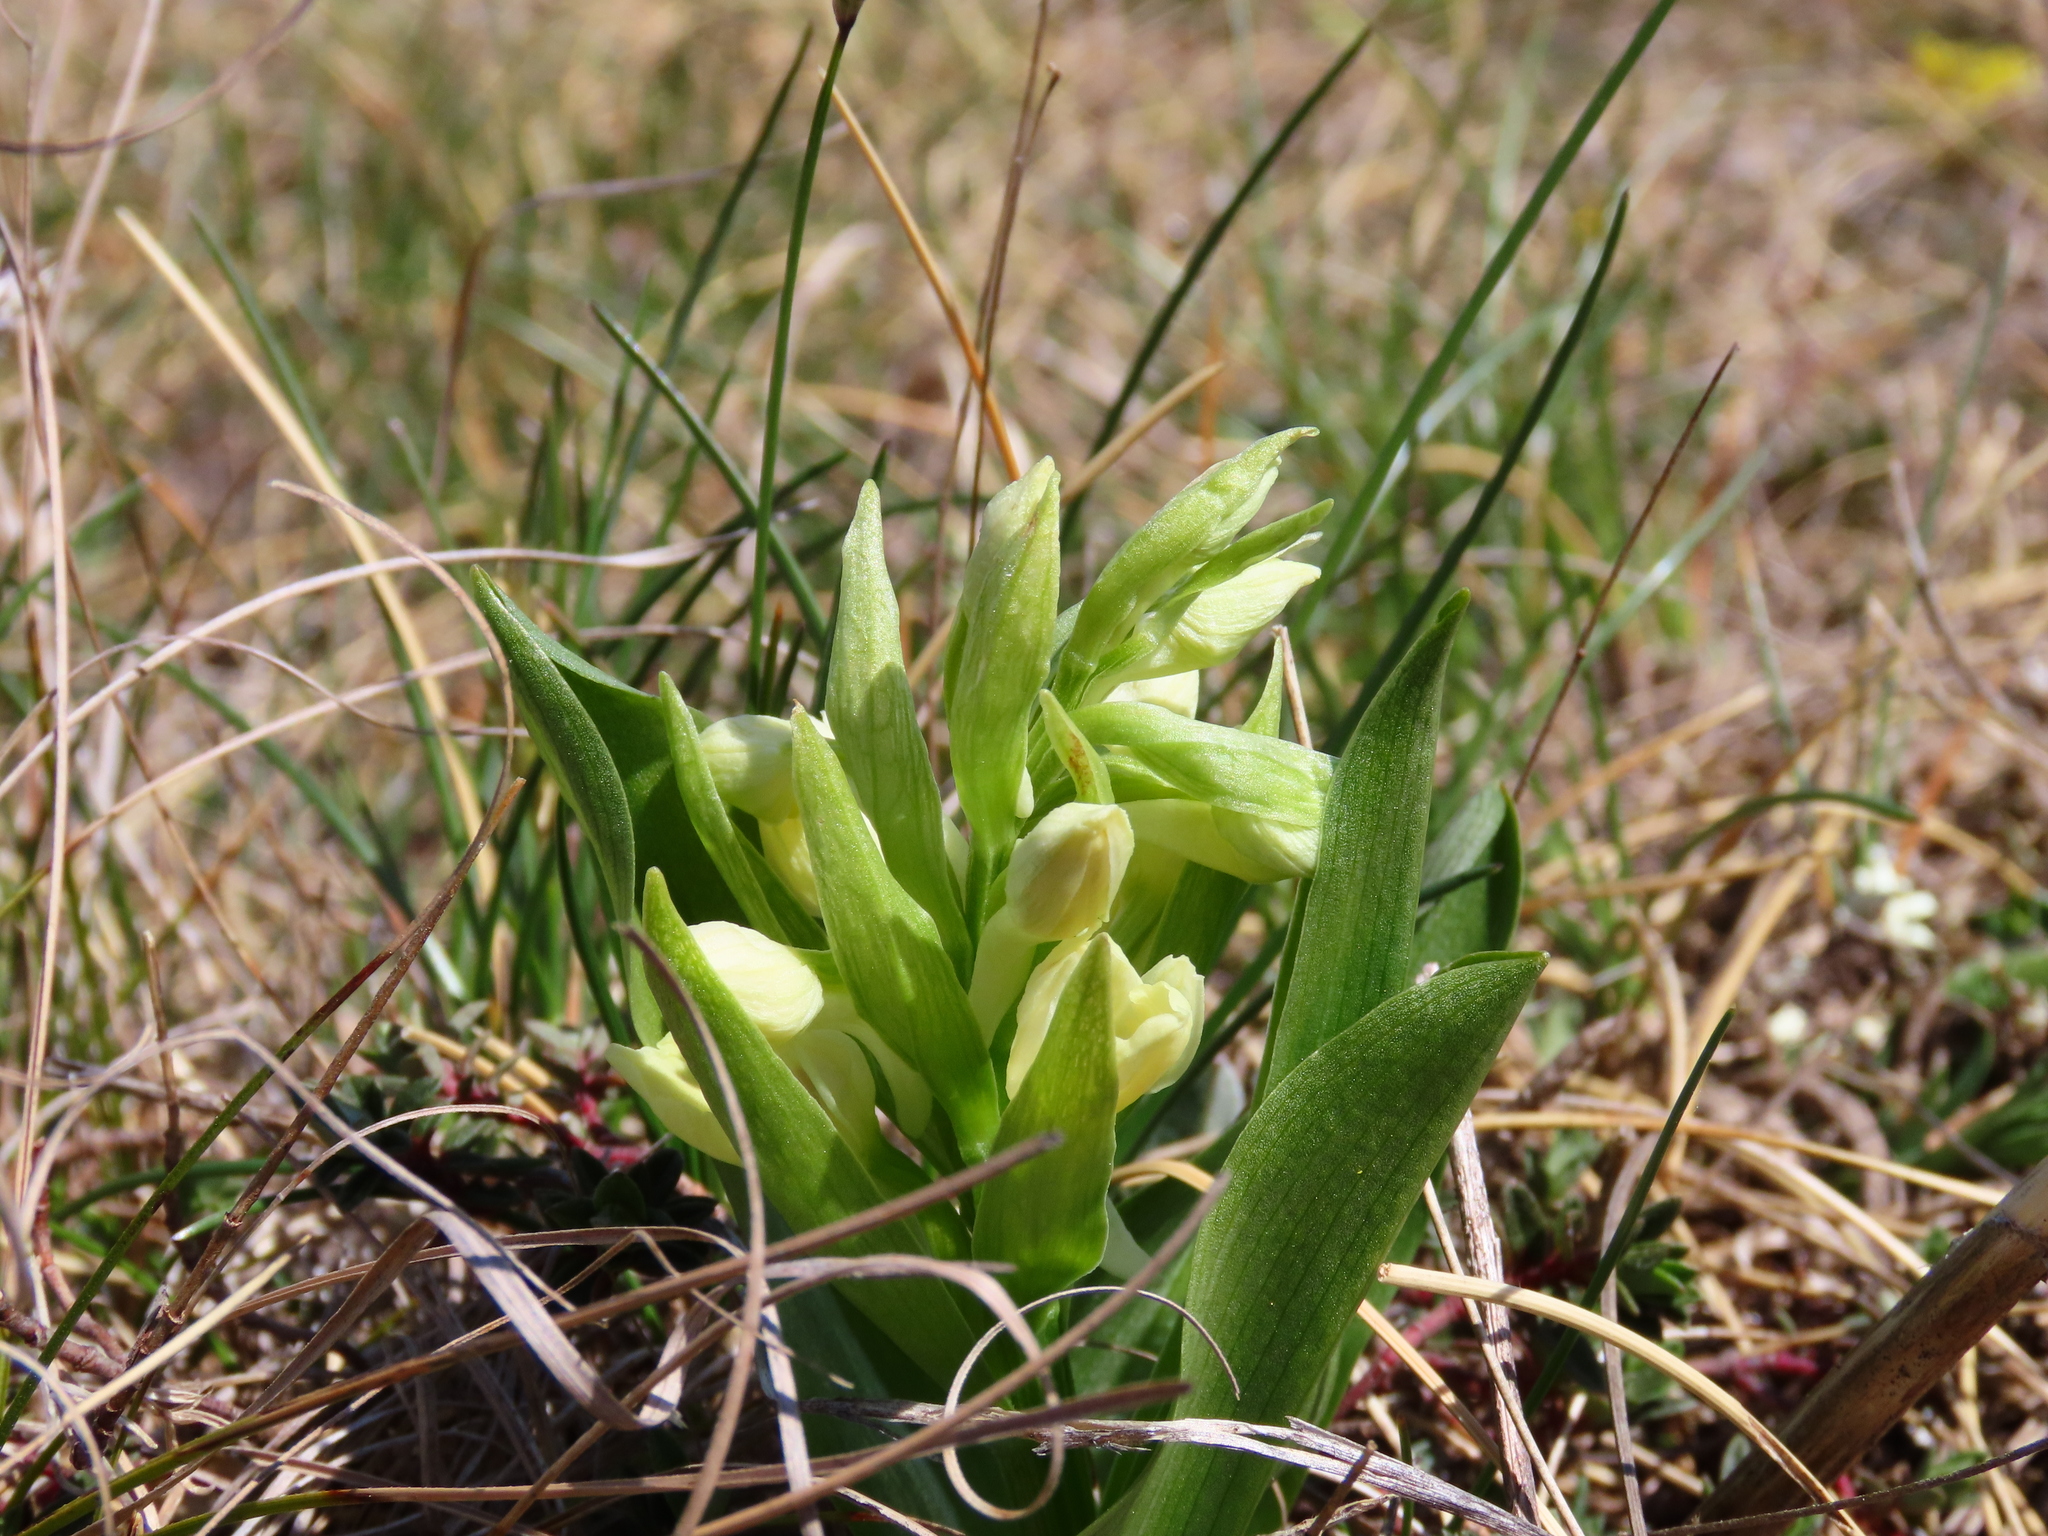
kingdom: Plantae
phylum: Tracheophyta
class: Liliopsida
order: Asparagales
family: Orchidaceae
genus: Dactylorhiza
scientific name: Dactylorhiza sambucina
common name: Elder-flowered orchid
